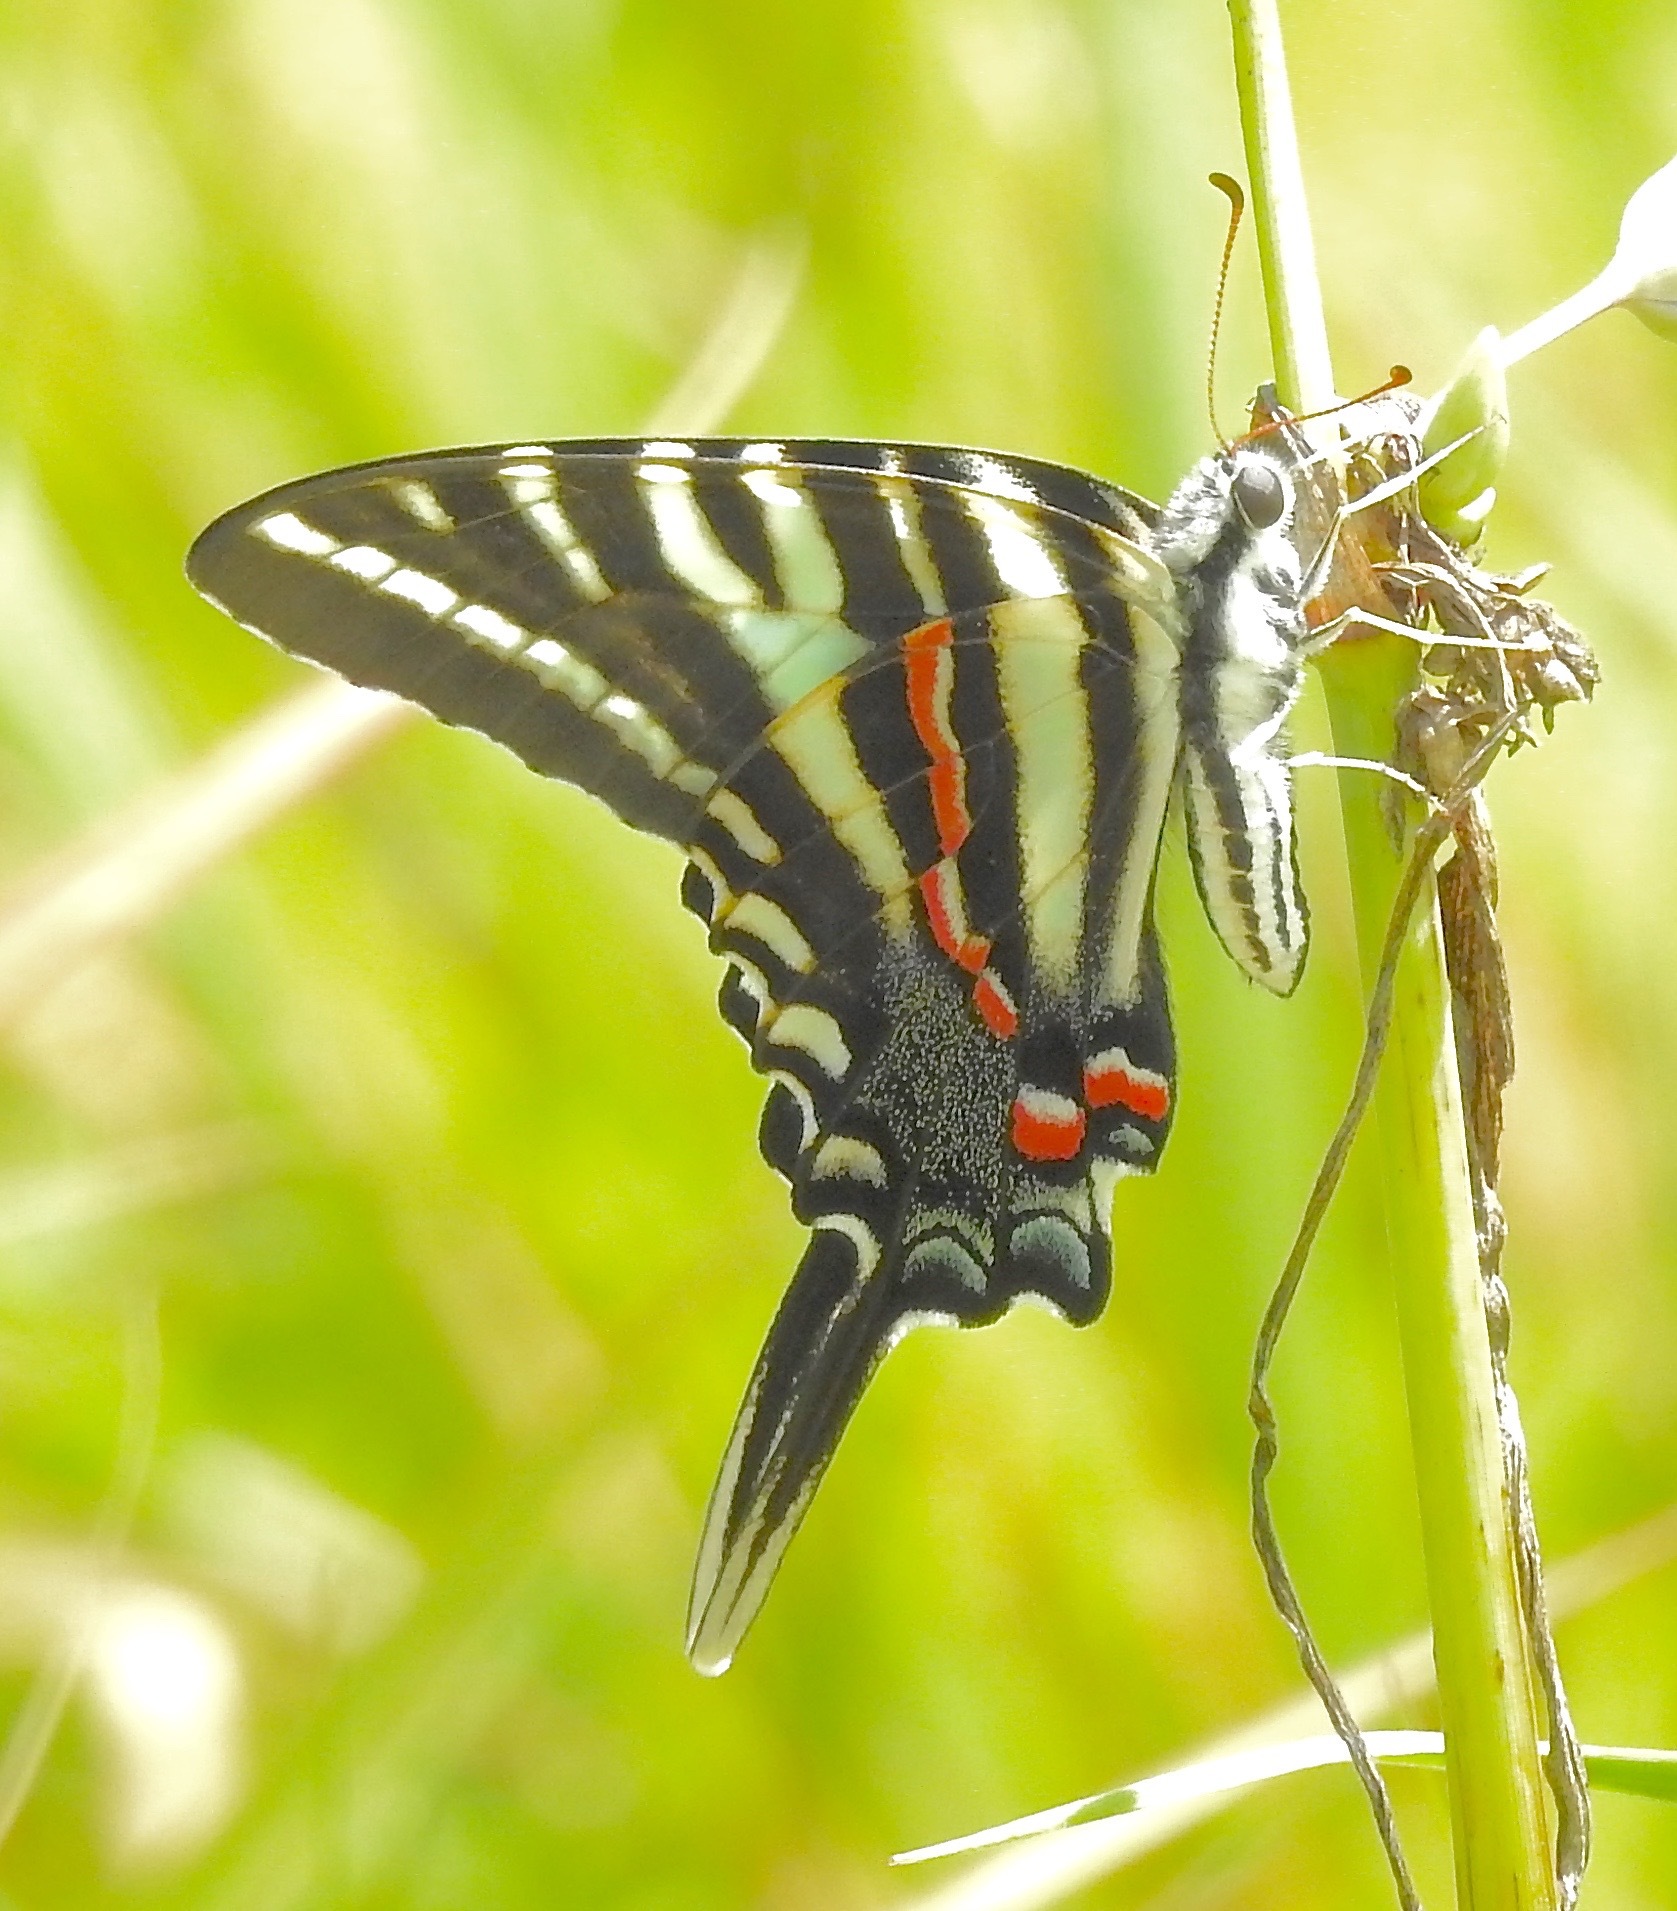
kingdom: Animalia
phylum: Arthropoda
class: Insecta
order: Lepidoptera
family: Papilionidae
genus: Protographium
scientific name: Protographium marcellus
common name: Zebra swallowtail
